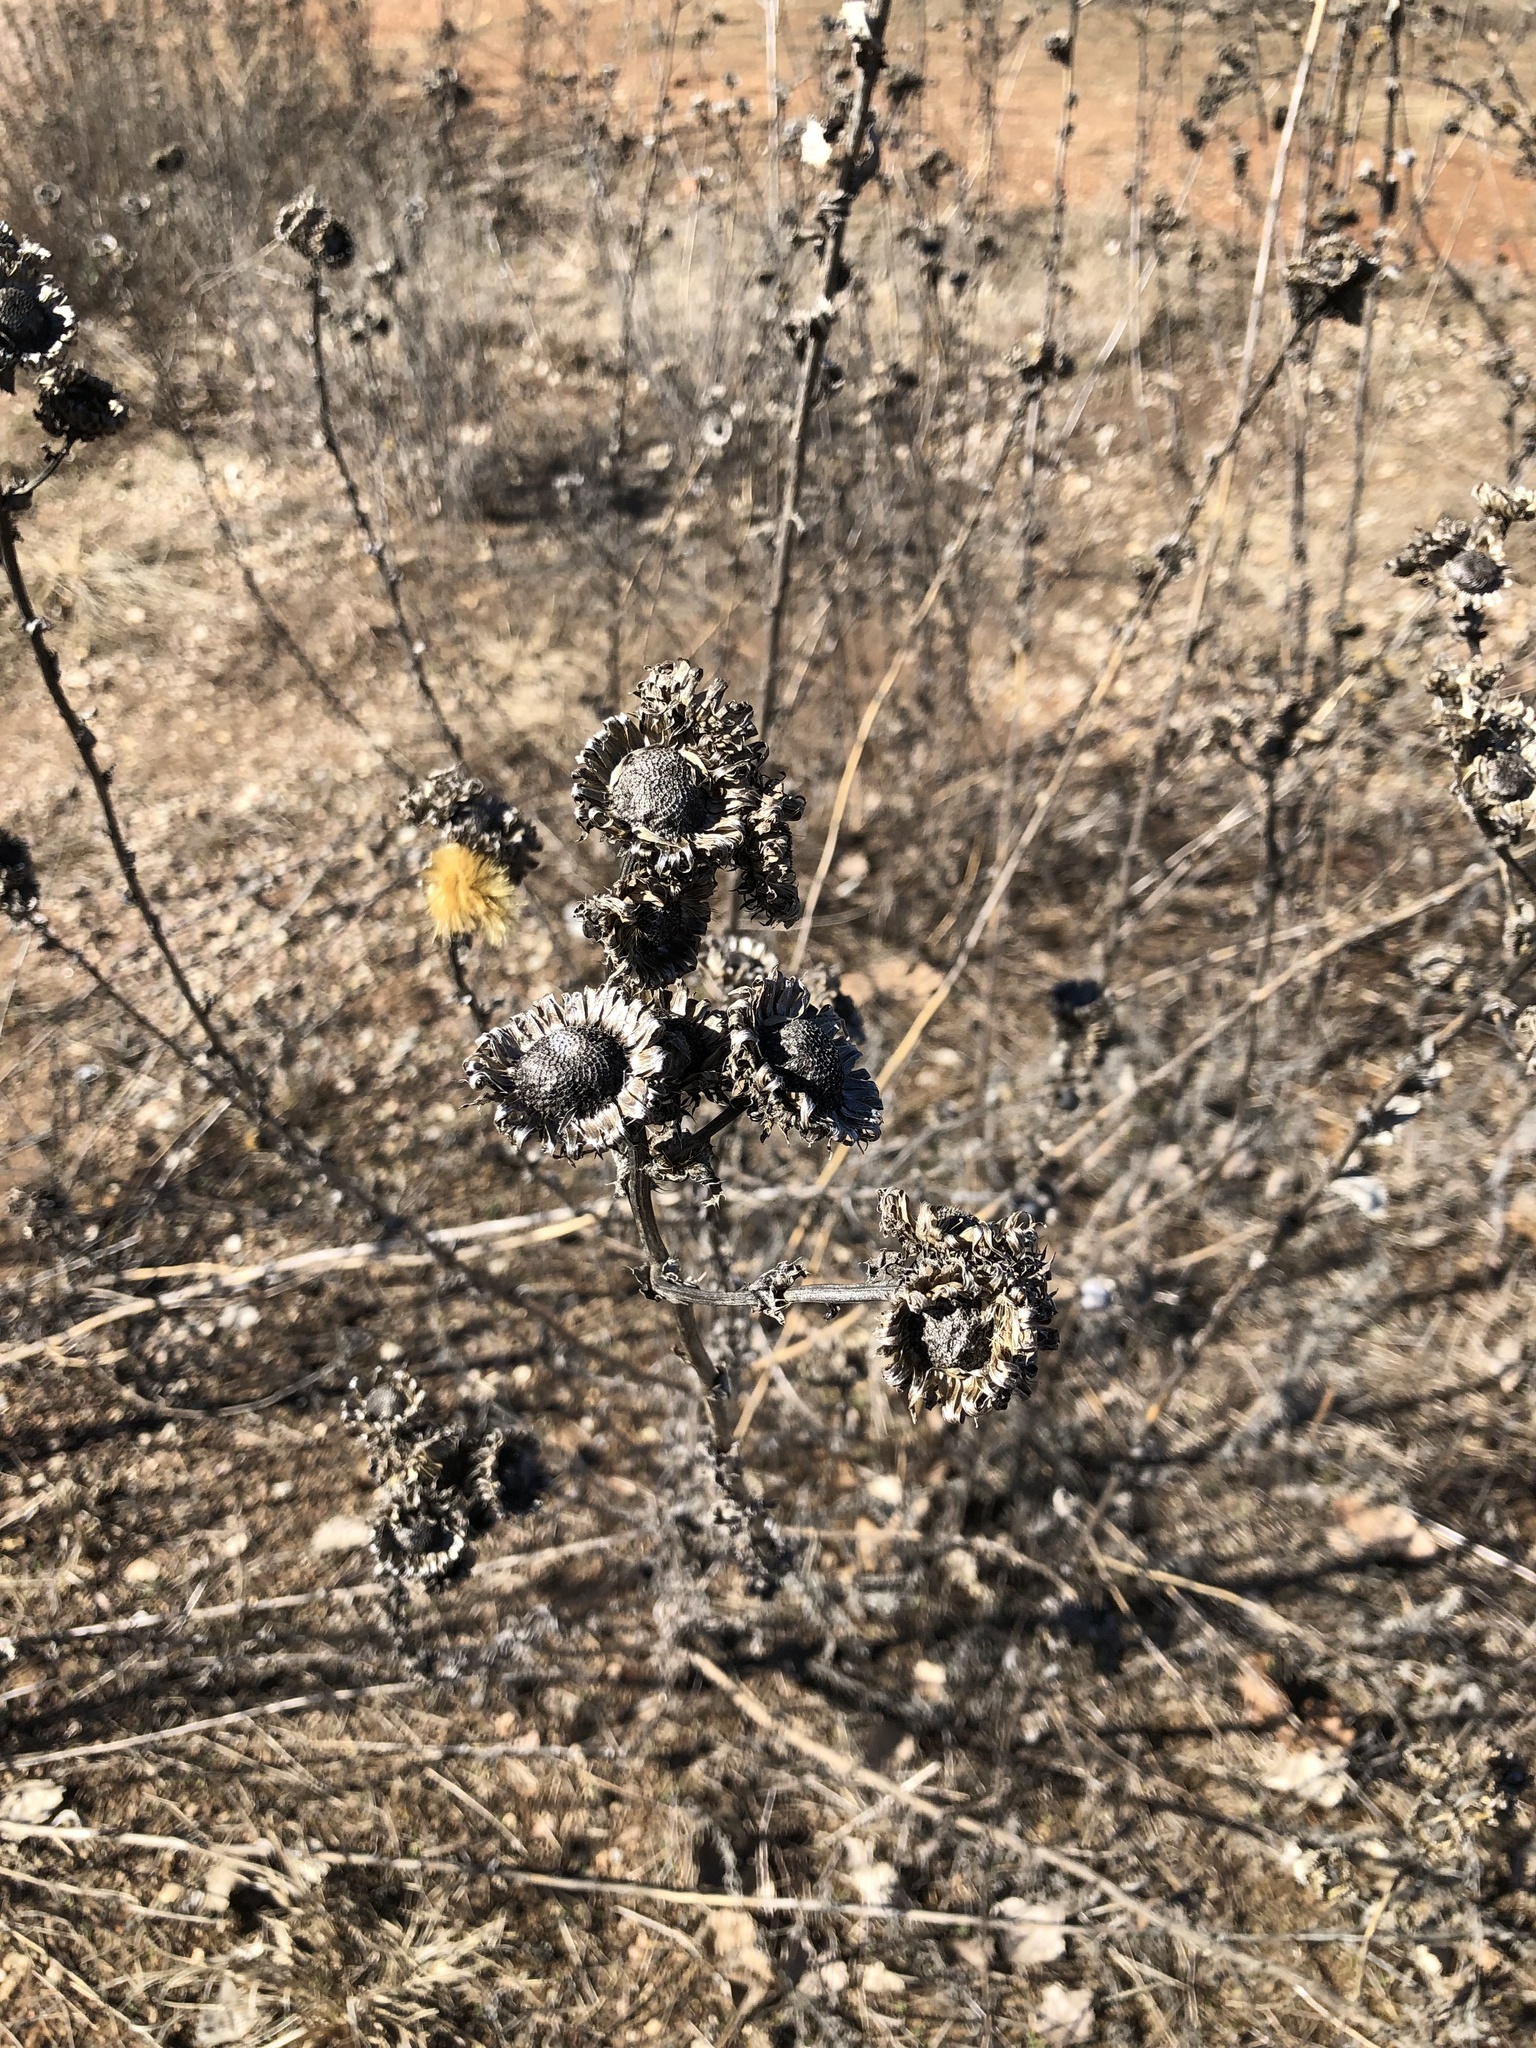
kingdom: Plantae
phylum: Tracheophyta
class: Magnoliopsida
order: Asterales
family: Asteraceae
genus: Grindelia
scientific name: Grindelia ciliata
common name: Goldenweed
